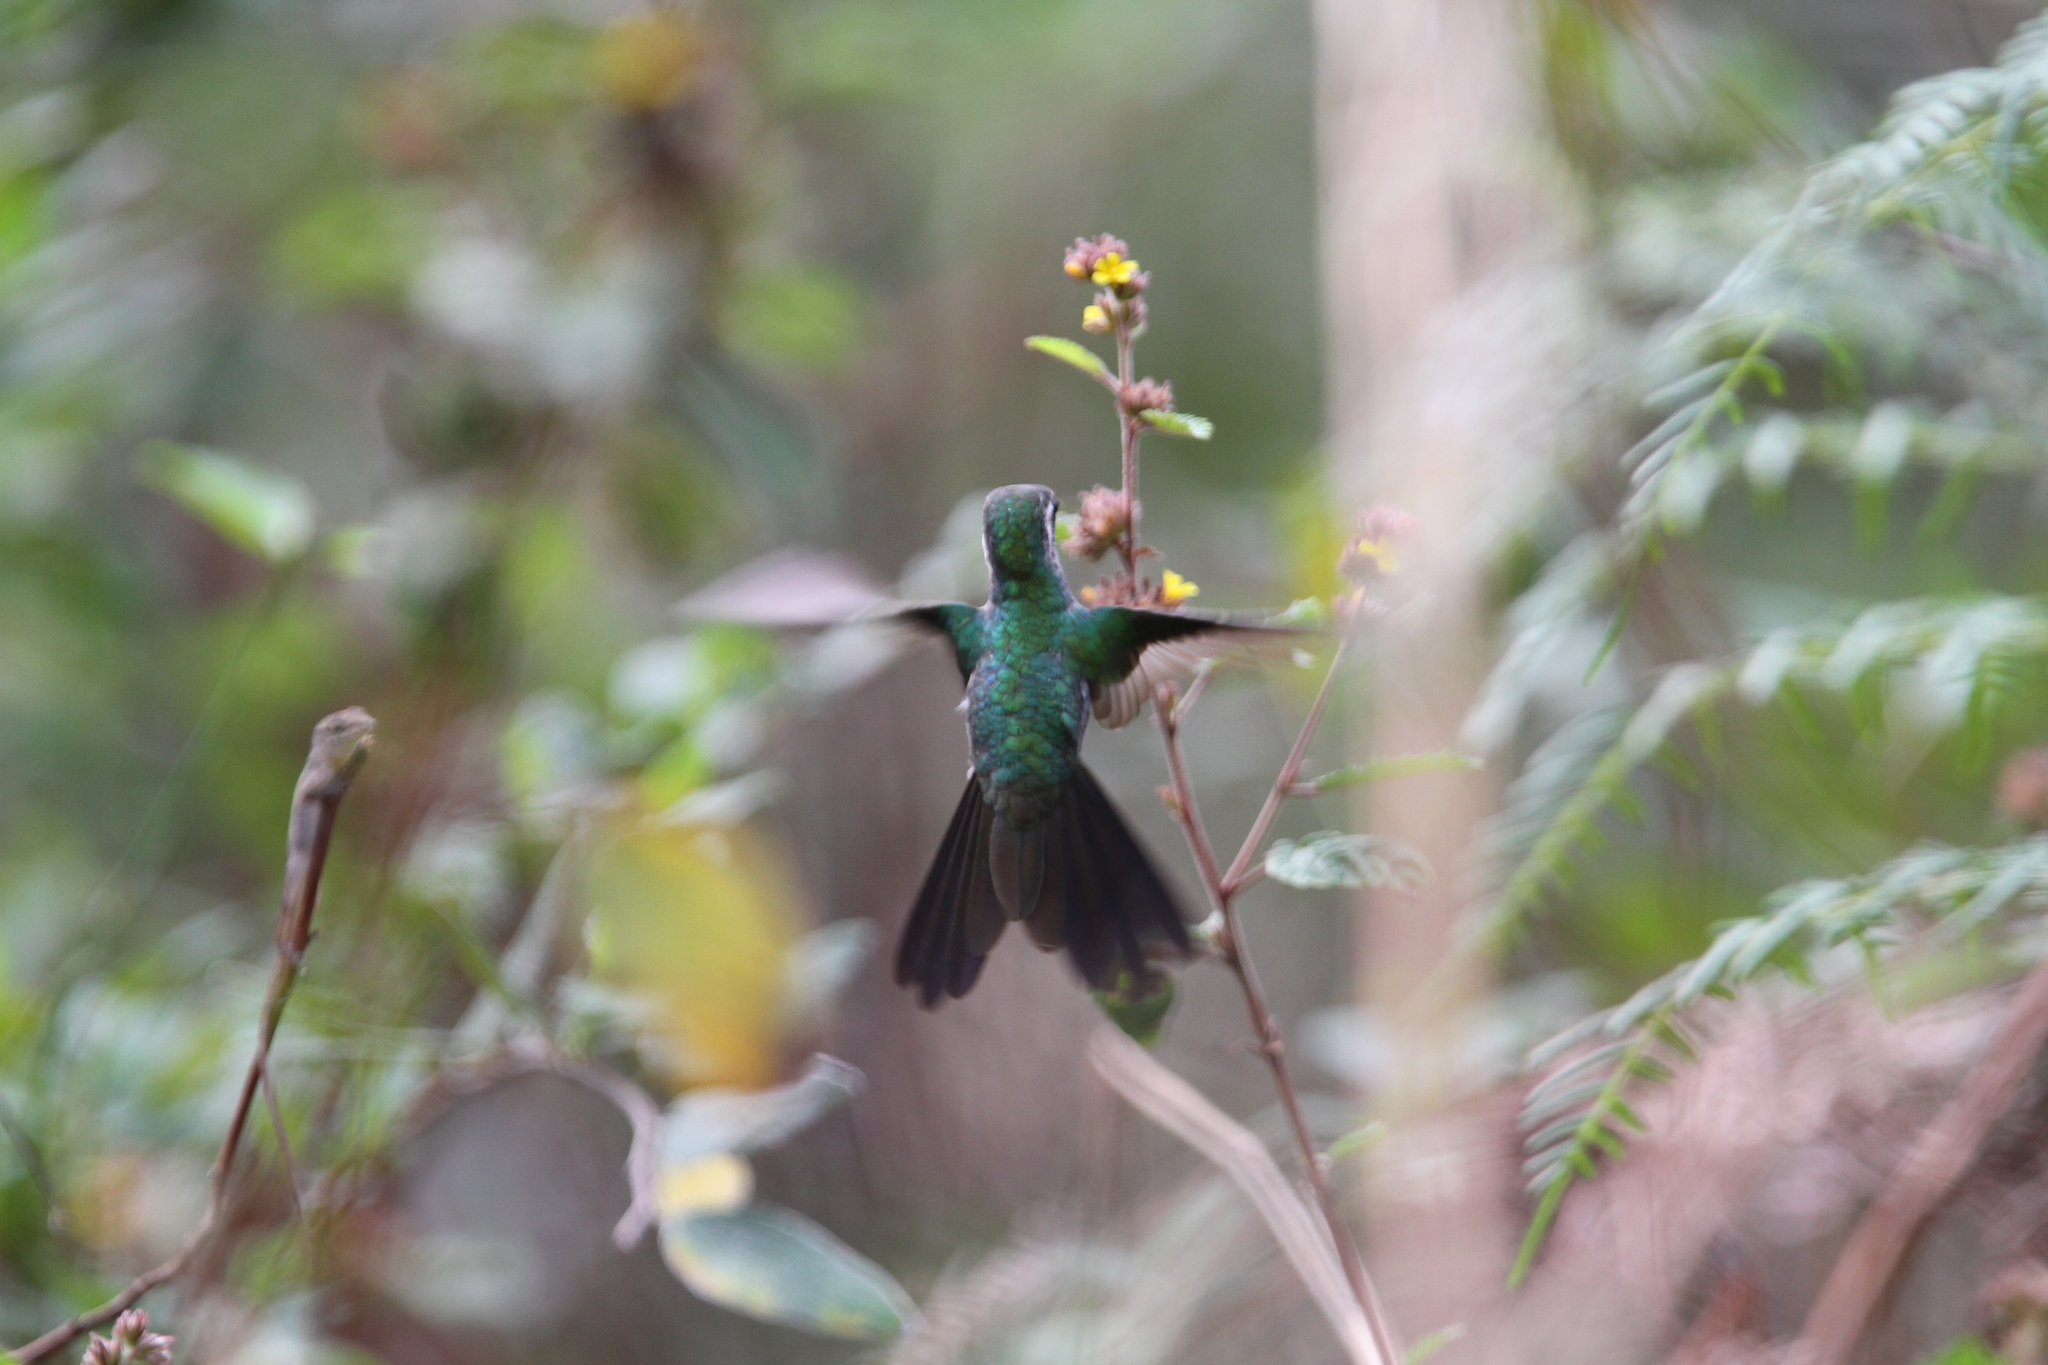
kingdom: Animalia
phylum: Chordata
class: Aves
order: Apodiformes
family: Trochilidae
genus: Riccordia
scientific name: Riccordia ricordii
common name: Cuban emerald
